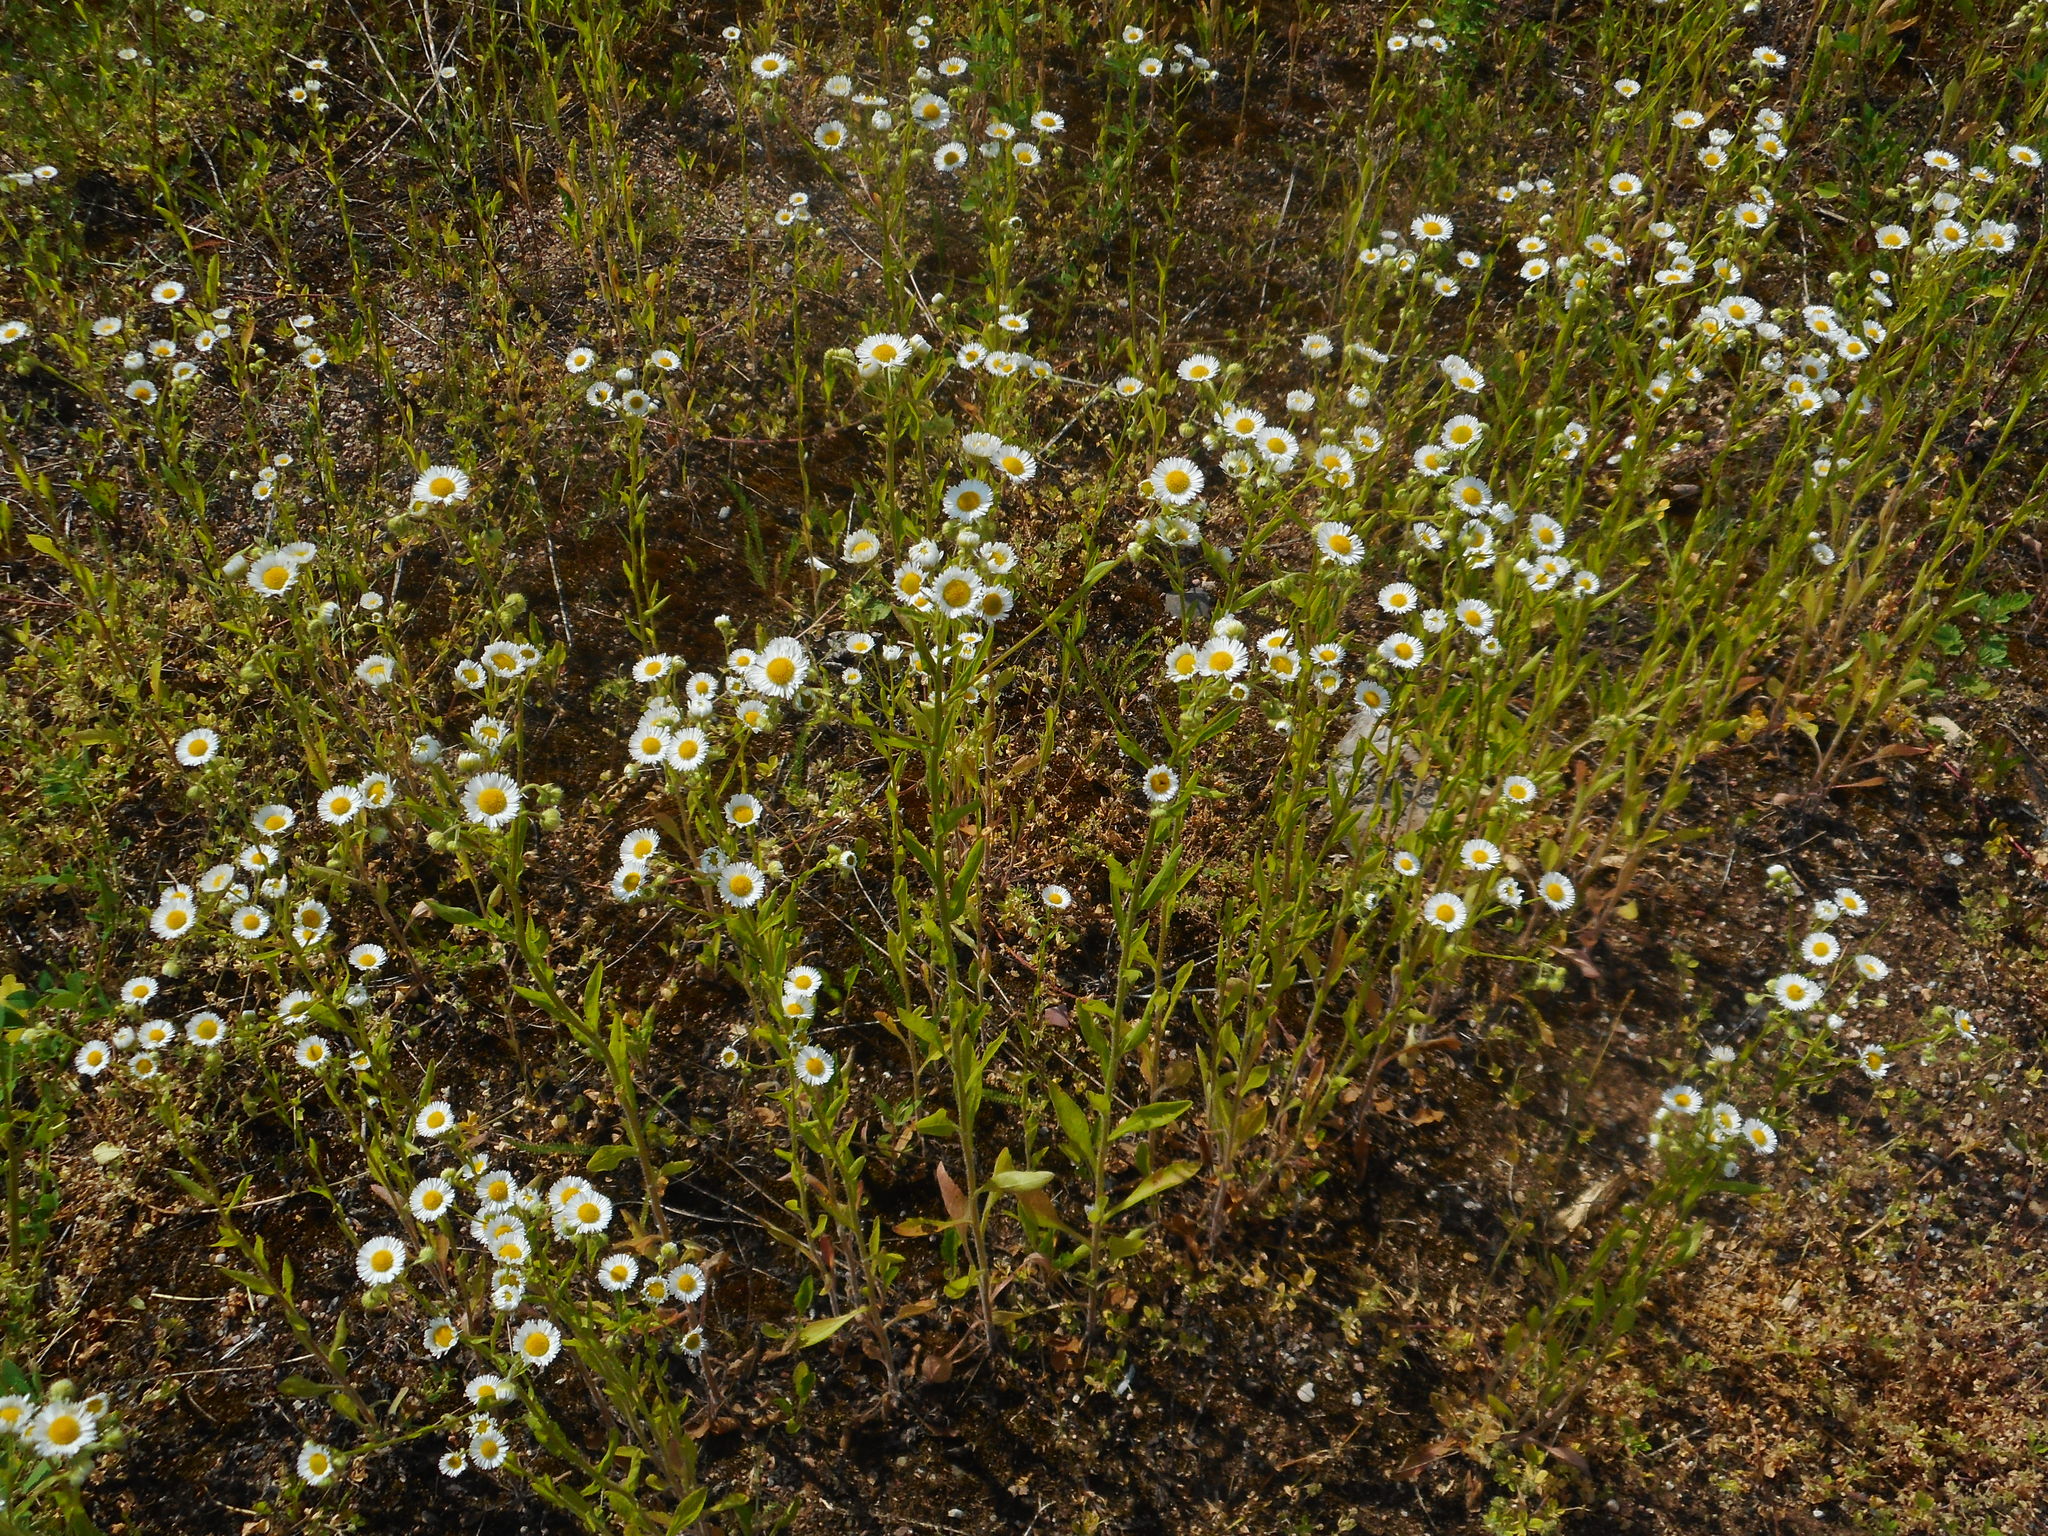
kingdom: Plantae
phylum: Tracheophyta
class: Magnoliopsida
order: Asterales
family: Asteraceae
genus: Erigeron
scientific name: Erigeron annuus
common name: Tall fleabane
